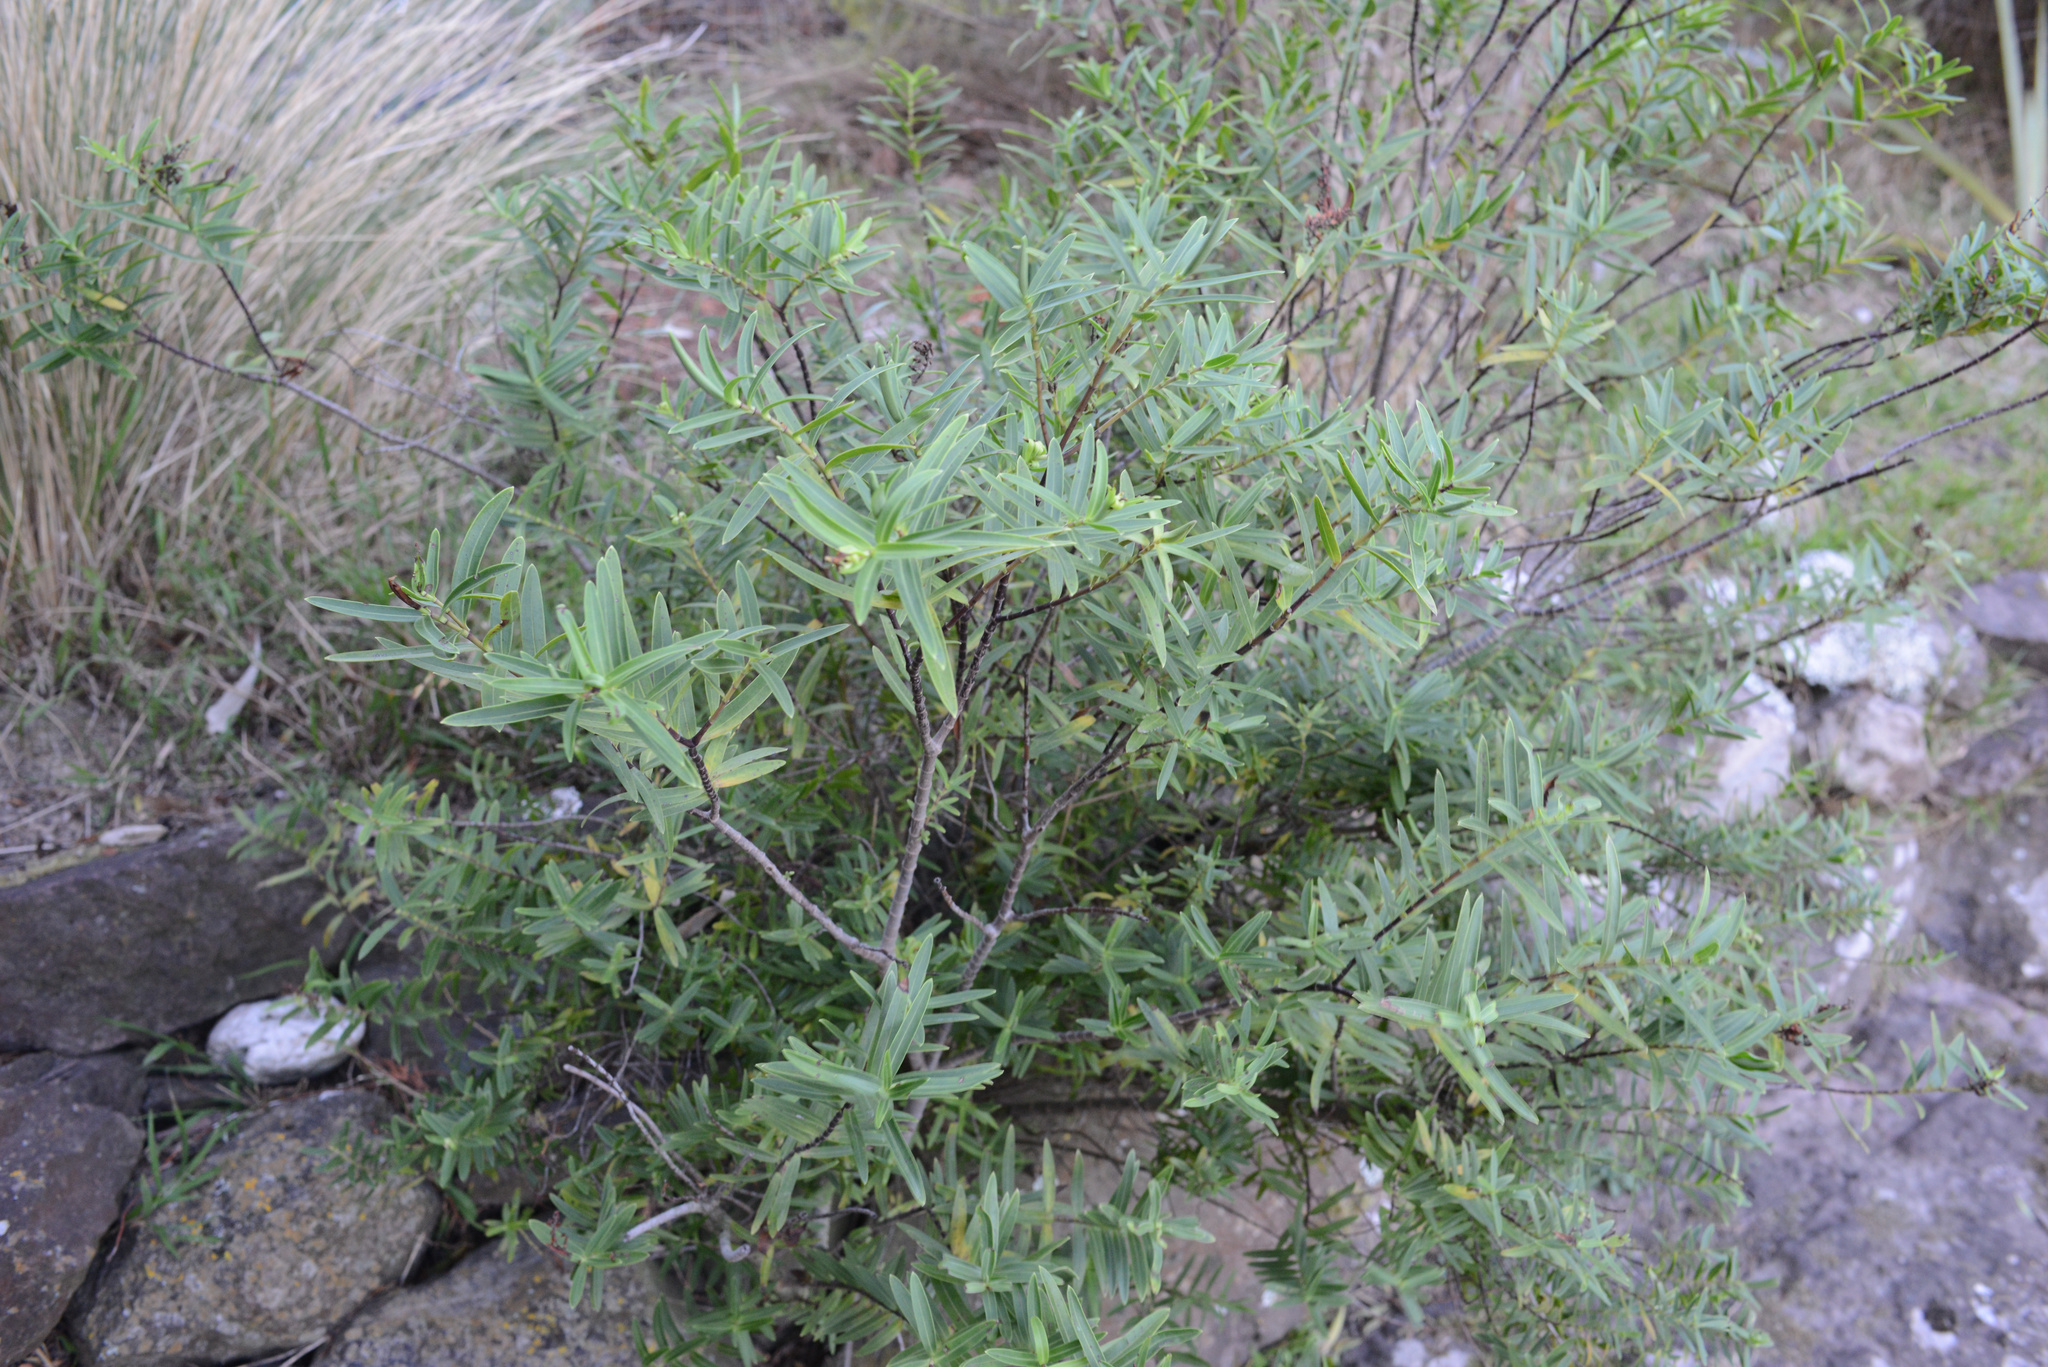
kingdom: Plantae
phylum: Tracheophyta
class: Magnoliopsida
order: Lamiales
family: Plantaginaceae
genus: Veronica
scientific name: Veronica strictissima
